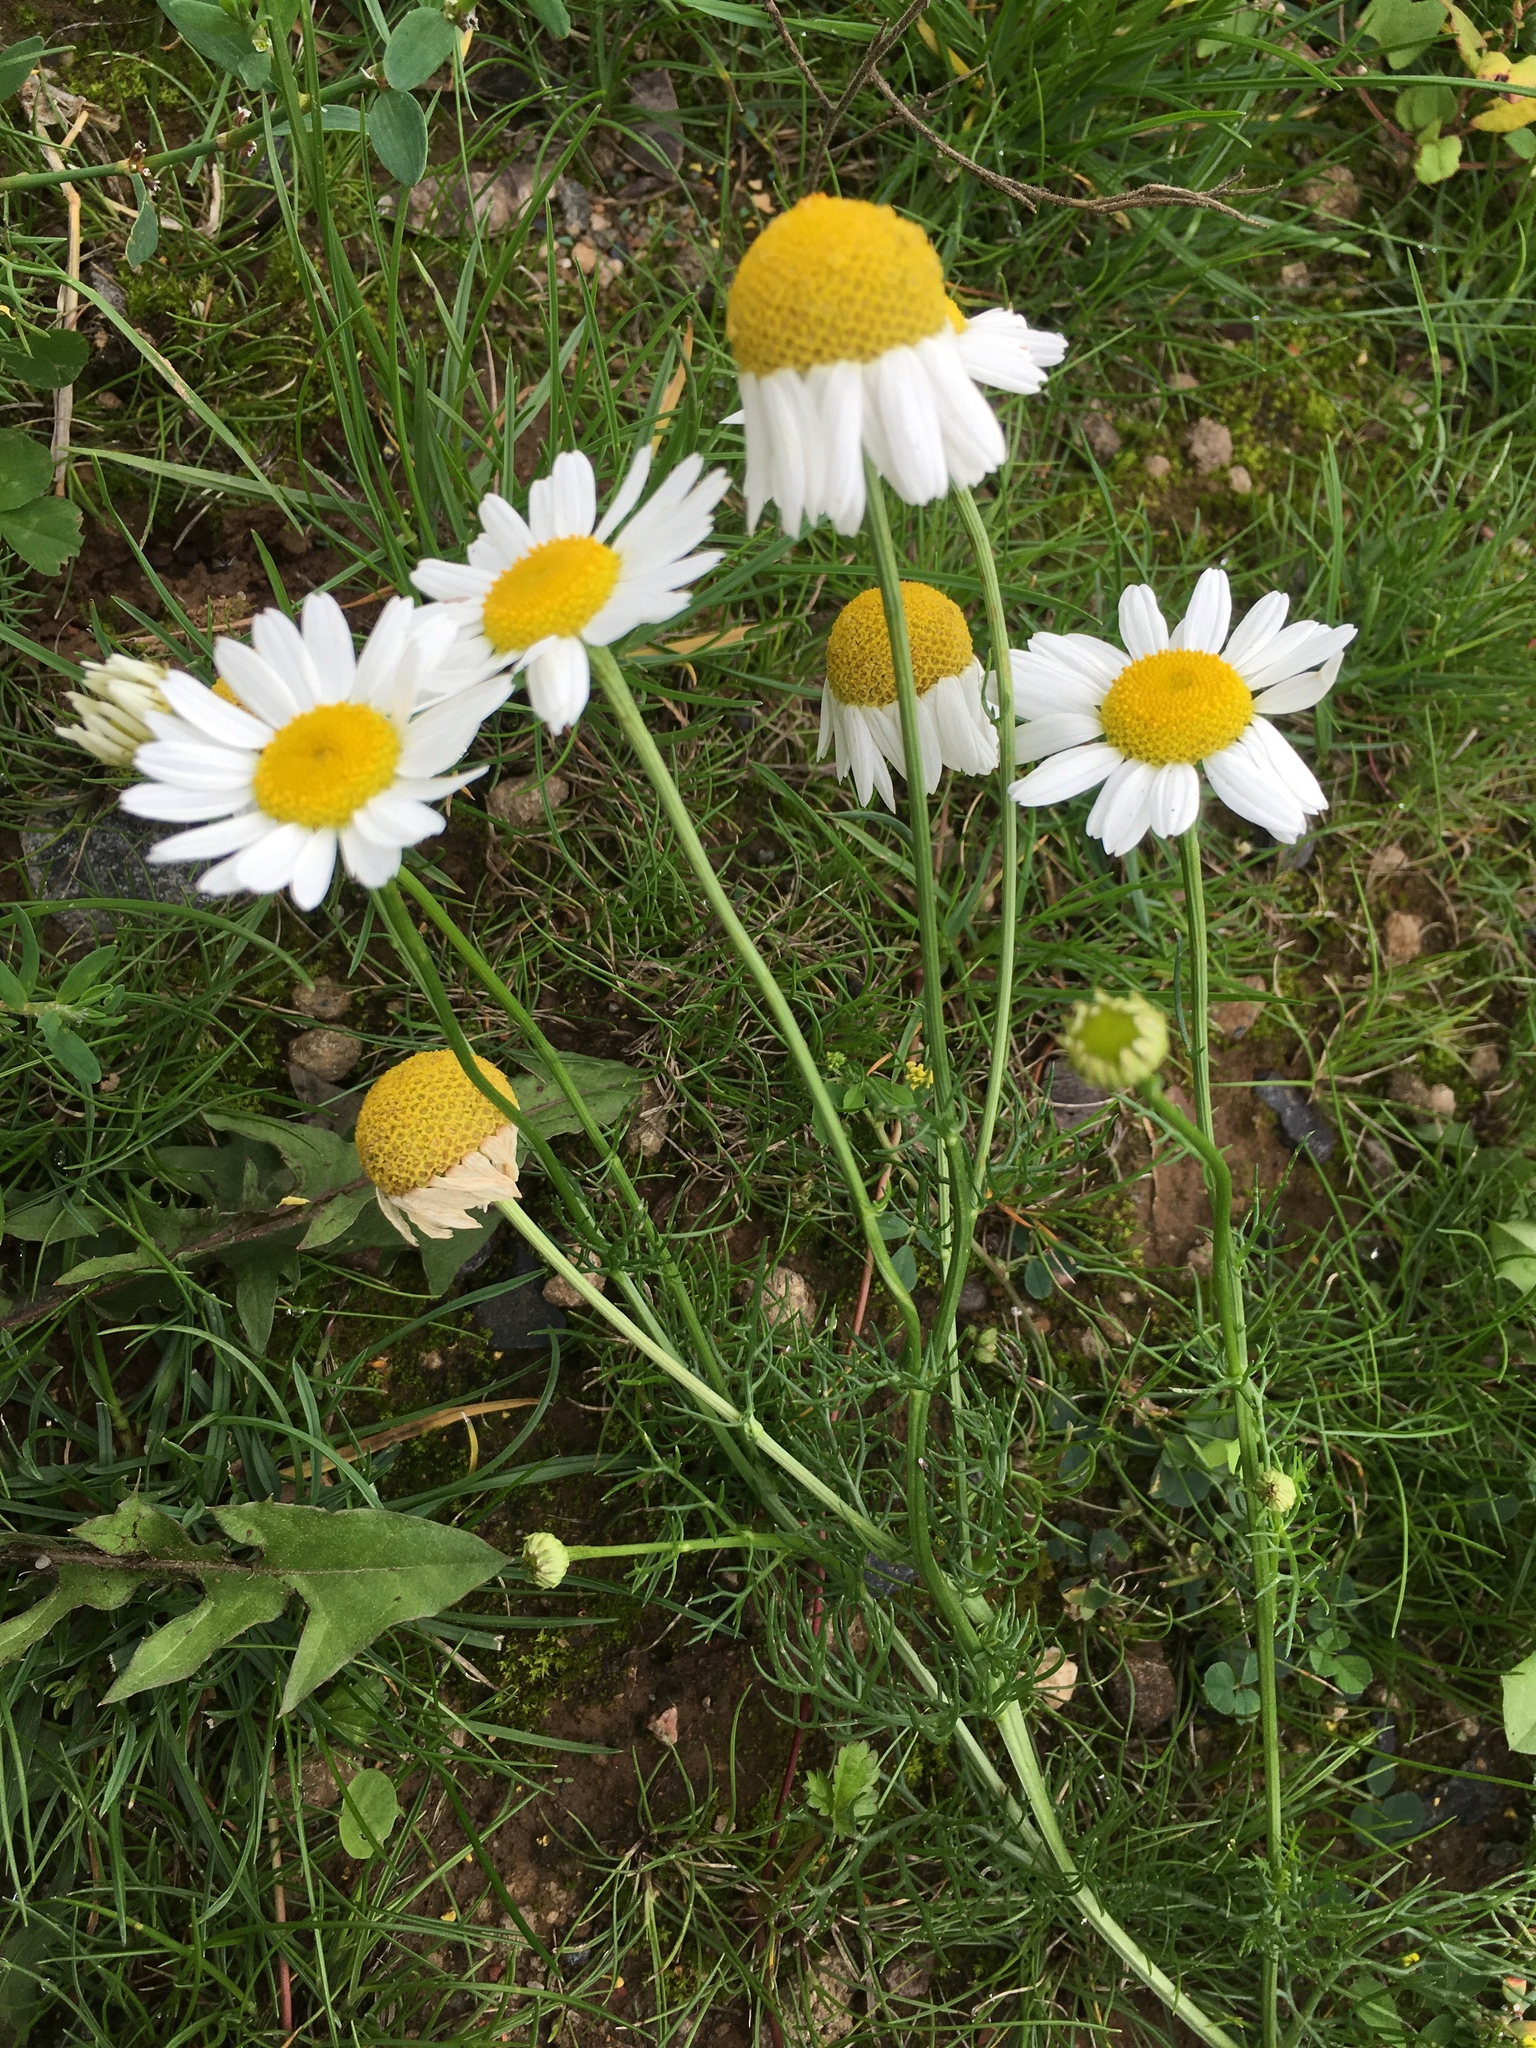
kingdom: Plantae
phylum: Tracheophyta
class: Magnoliopsida
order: Asterales
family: Asteraceae
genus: Tripleurospermum
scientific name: Tripleurospermum inodorum
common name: Scentless mayweed
